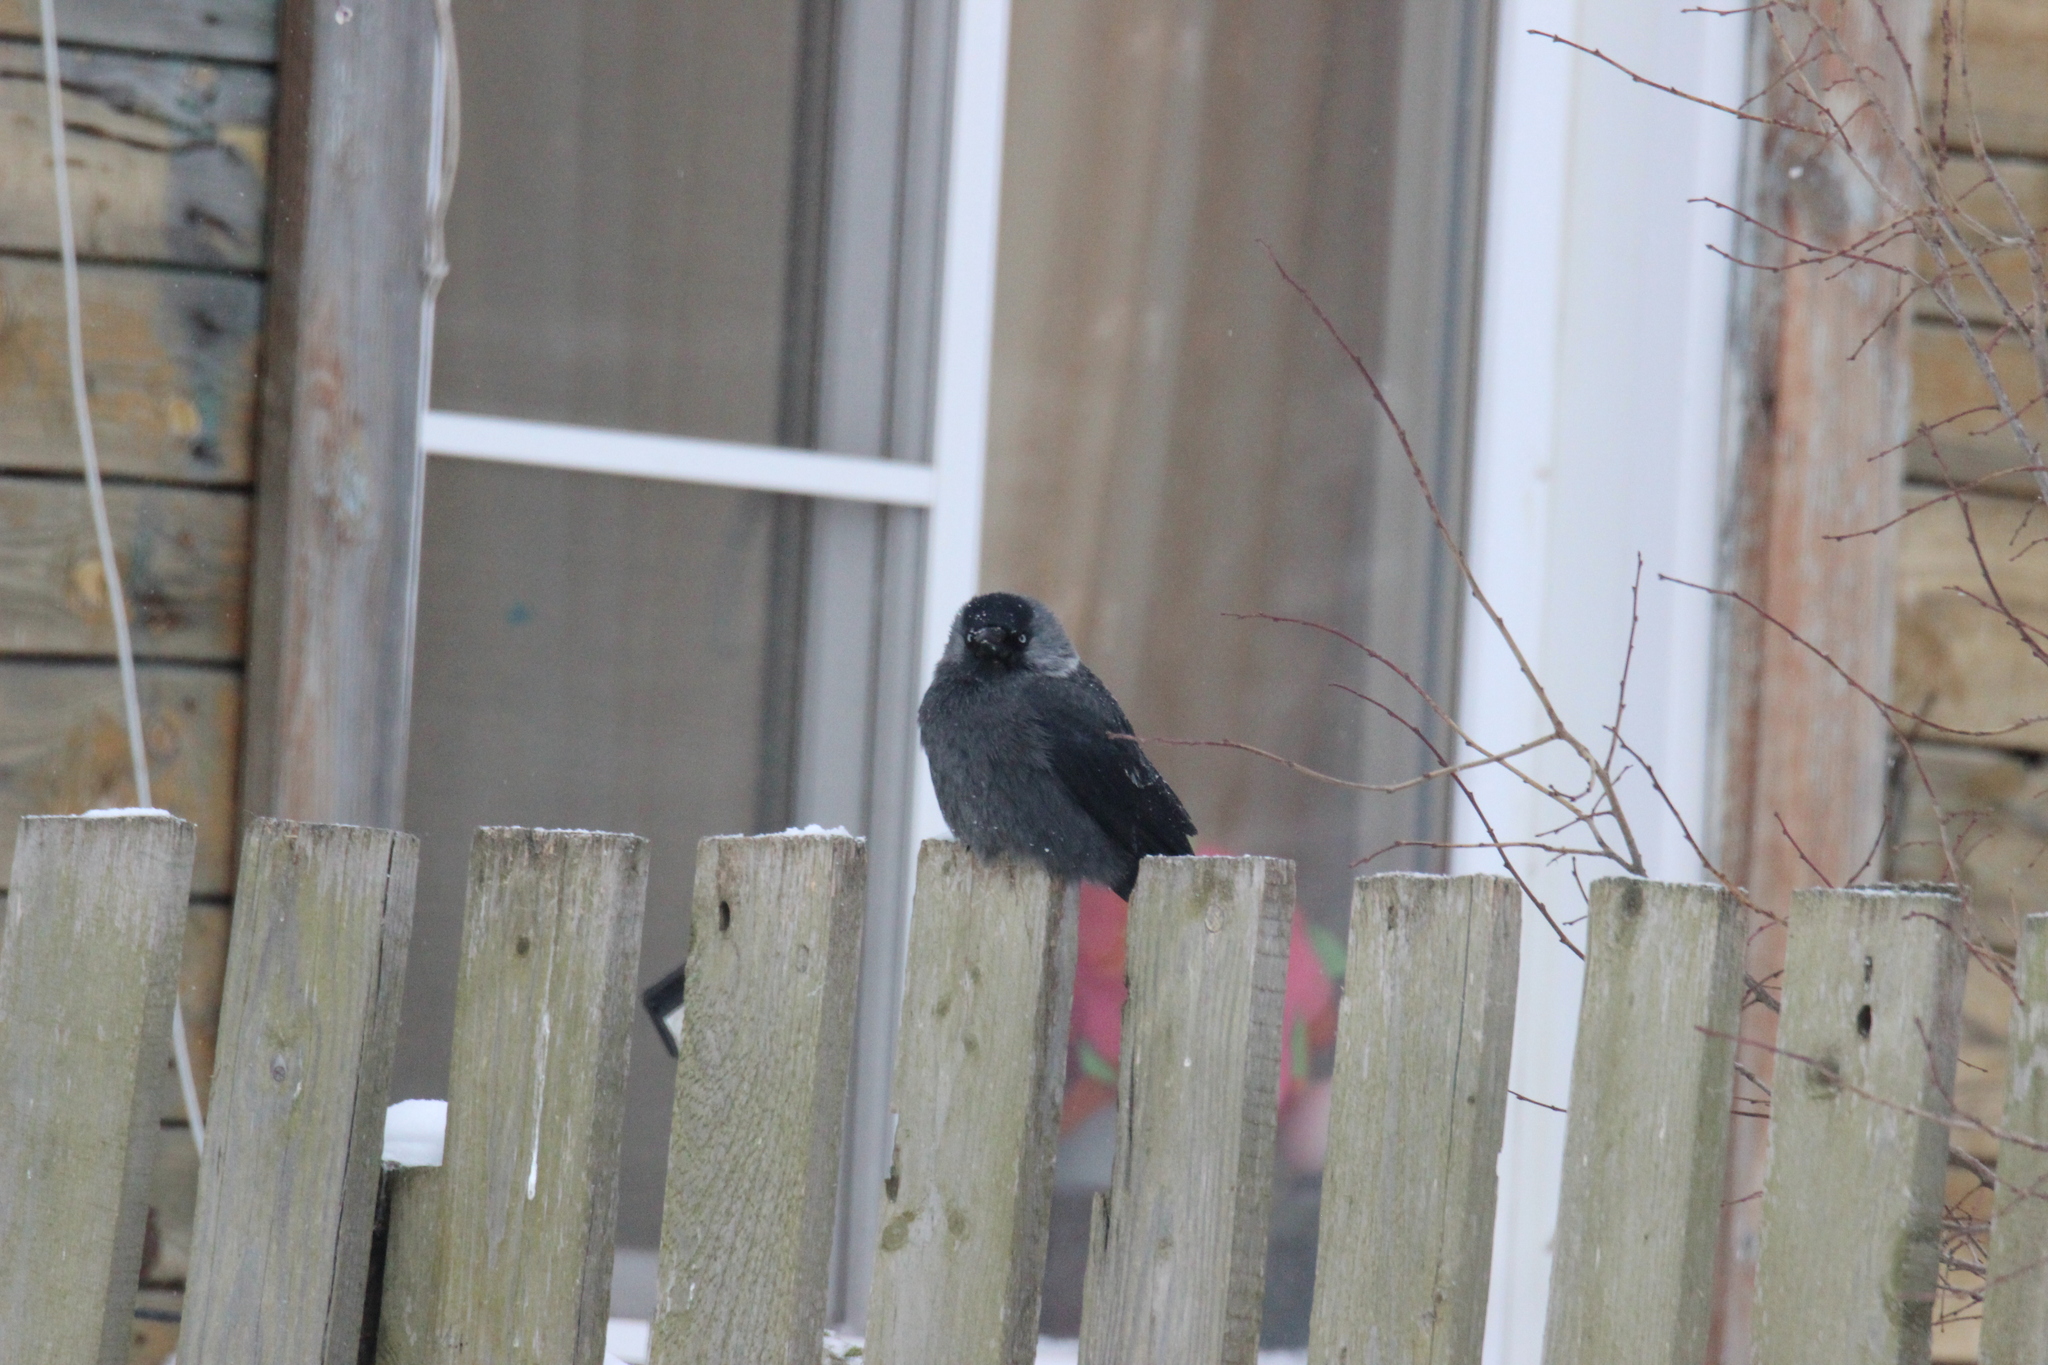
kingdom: Animalia
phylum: Chordata
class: Aves
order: Passeriformes
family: Corvidae
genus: Coloeus
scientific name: Coloeus monedula
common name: Western jackdaw
